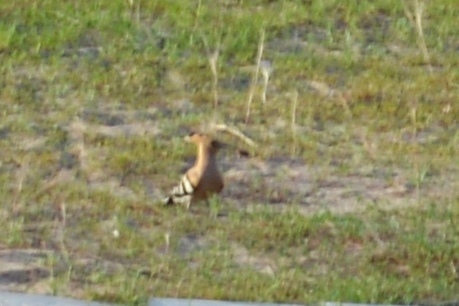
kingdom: Animalia
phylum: Chordata
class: Aves
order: Bucerotiformes
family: Upupidae
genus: Upupa
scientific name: Upupa epops
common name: Eurasian hoopoe
